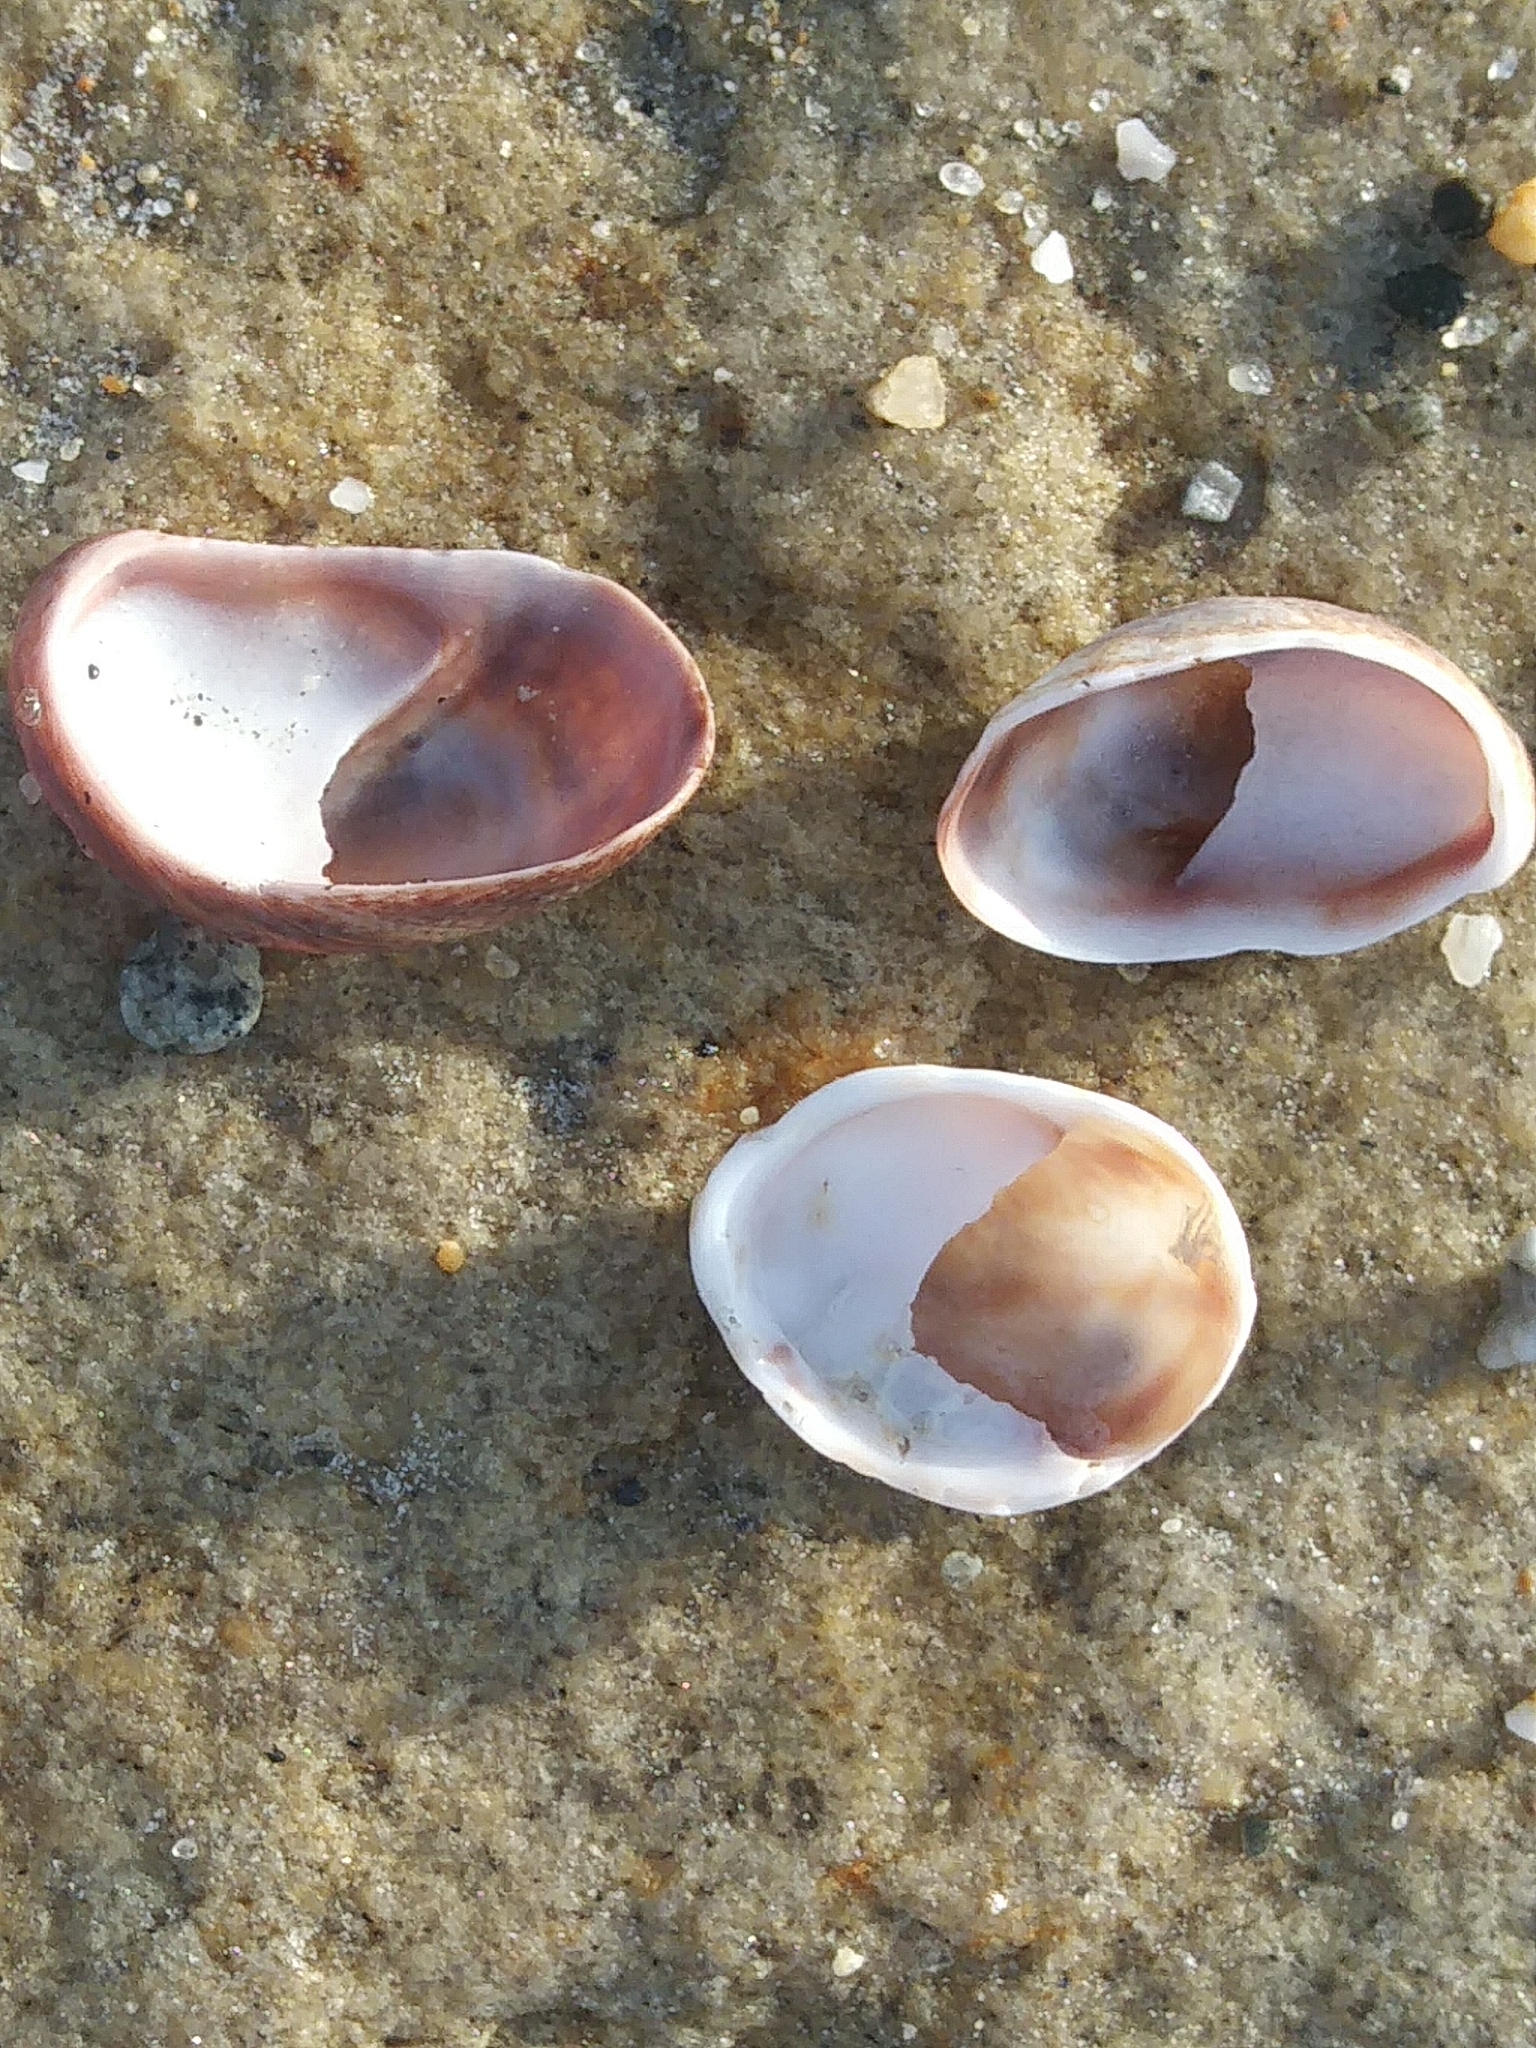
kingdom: Animalia
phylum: Mollusca
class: Gastropoda
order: Littorinimorpha
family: Calyptraeidae
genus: Crepidula
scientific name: Crepidula fornicata
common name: Slipper limpet
